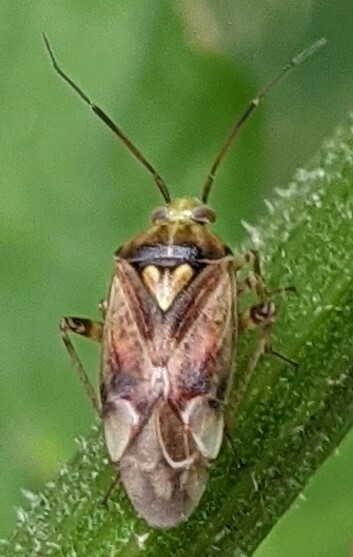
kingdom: Animalia
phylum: Arthropoda
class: Insecta
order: Hemiptera
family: Miridae
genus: Lygus
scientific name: Lygus rugulipennis
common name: European tarnished plant bug
